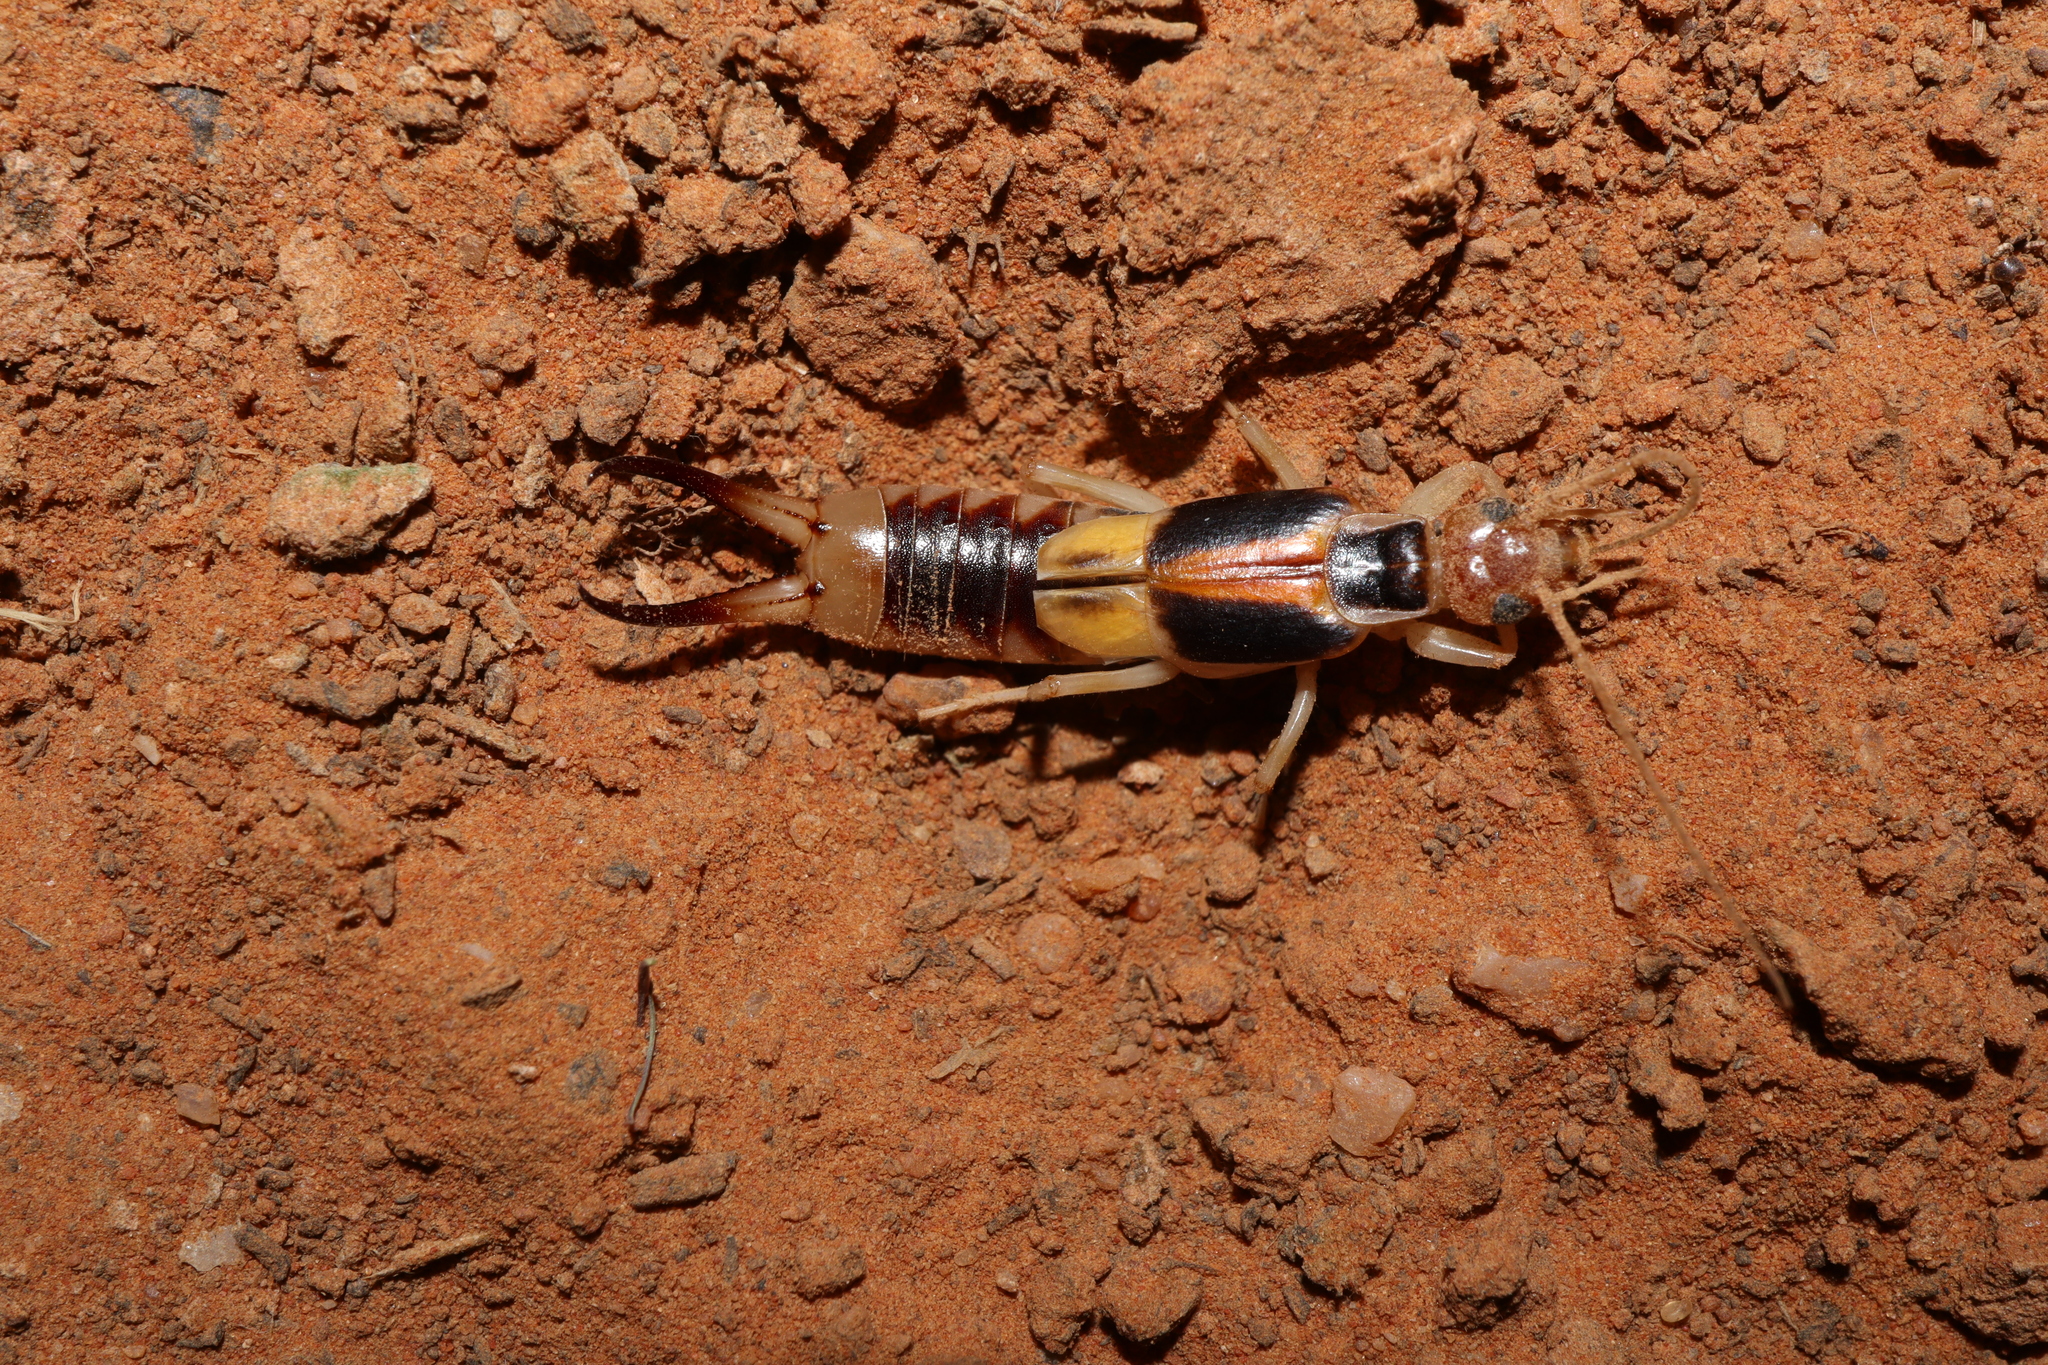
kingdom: Animalia
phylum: Arthropoda
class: Insecta
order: Dermaptera
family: Labiduridae
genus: Labidura
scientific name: Labidura riparia
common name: Striped earwig
